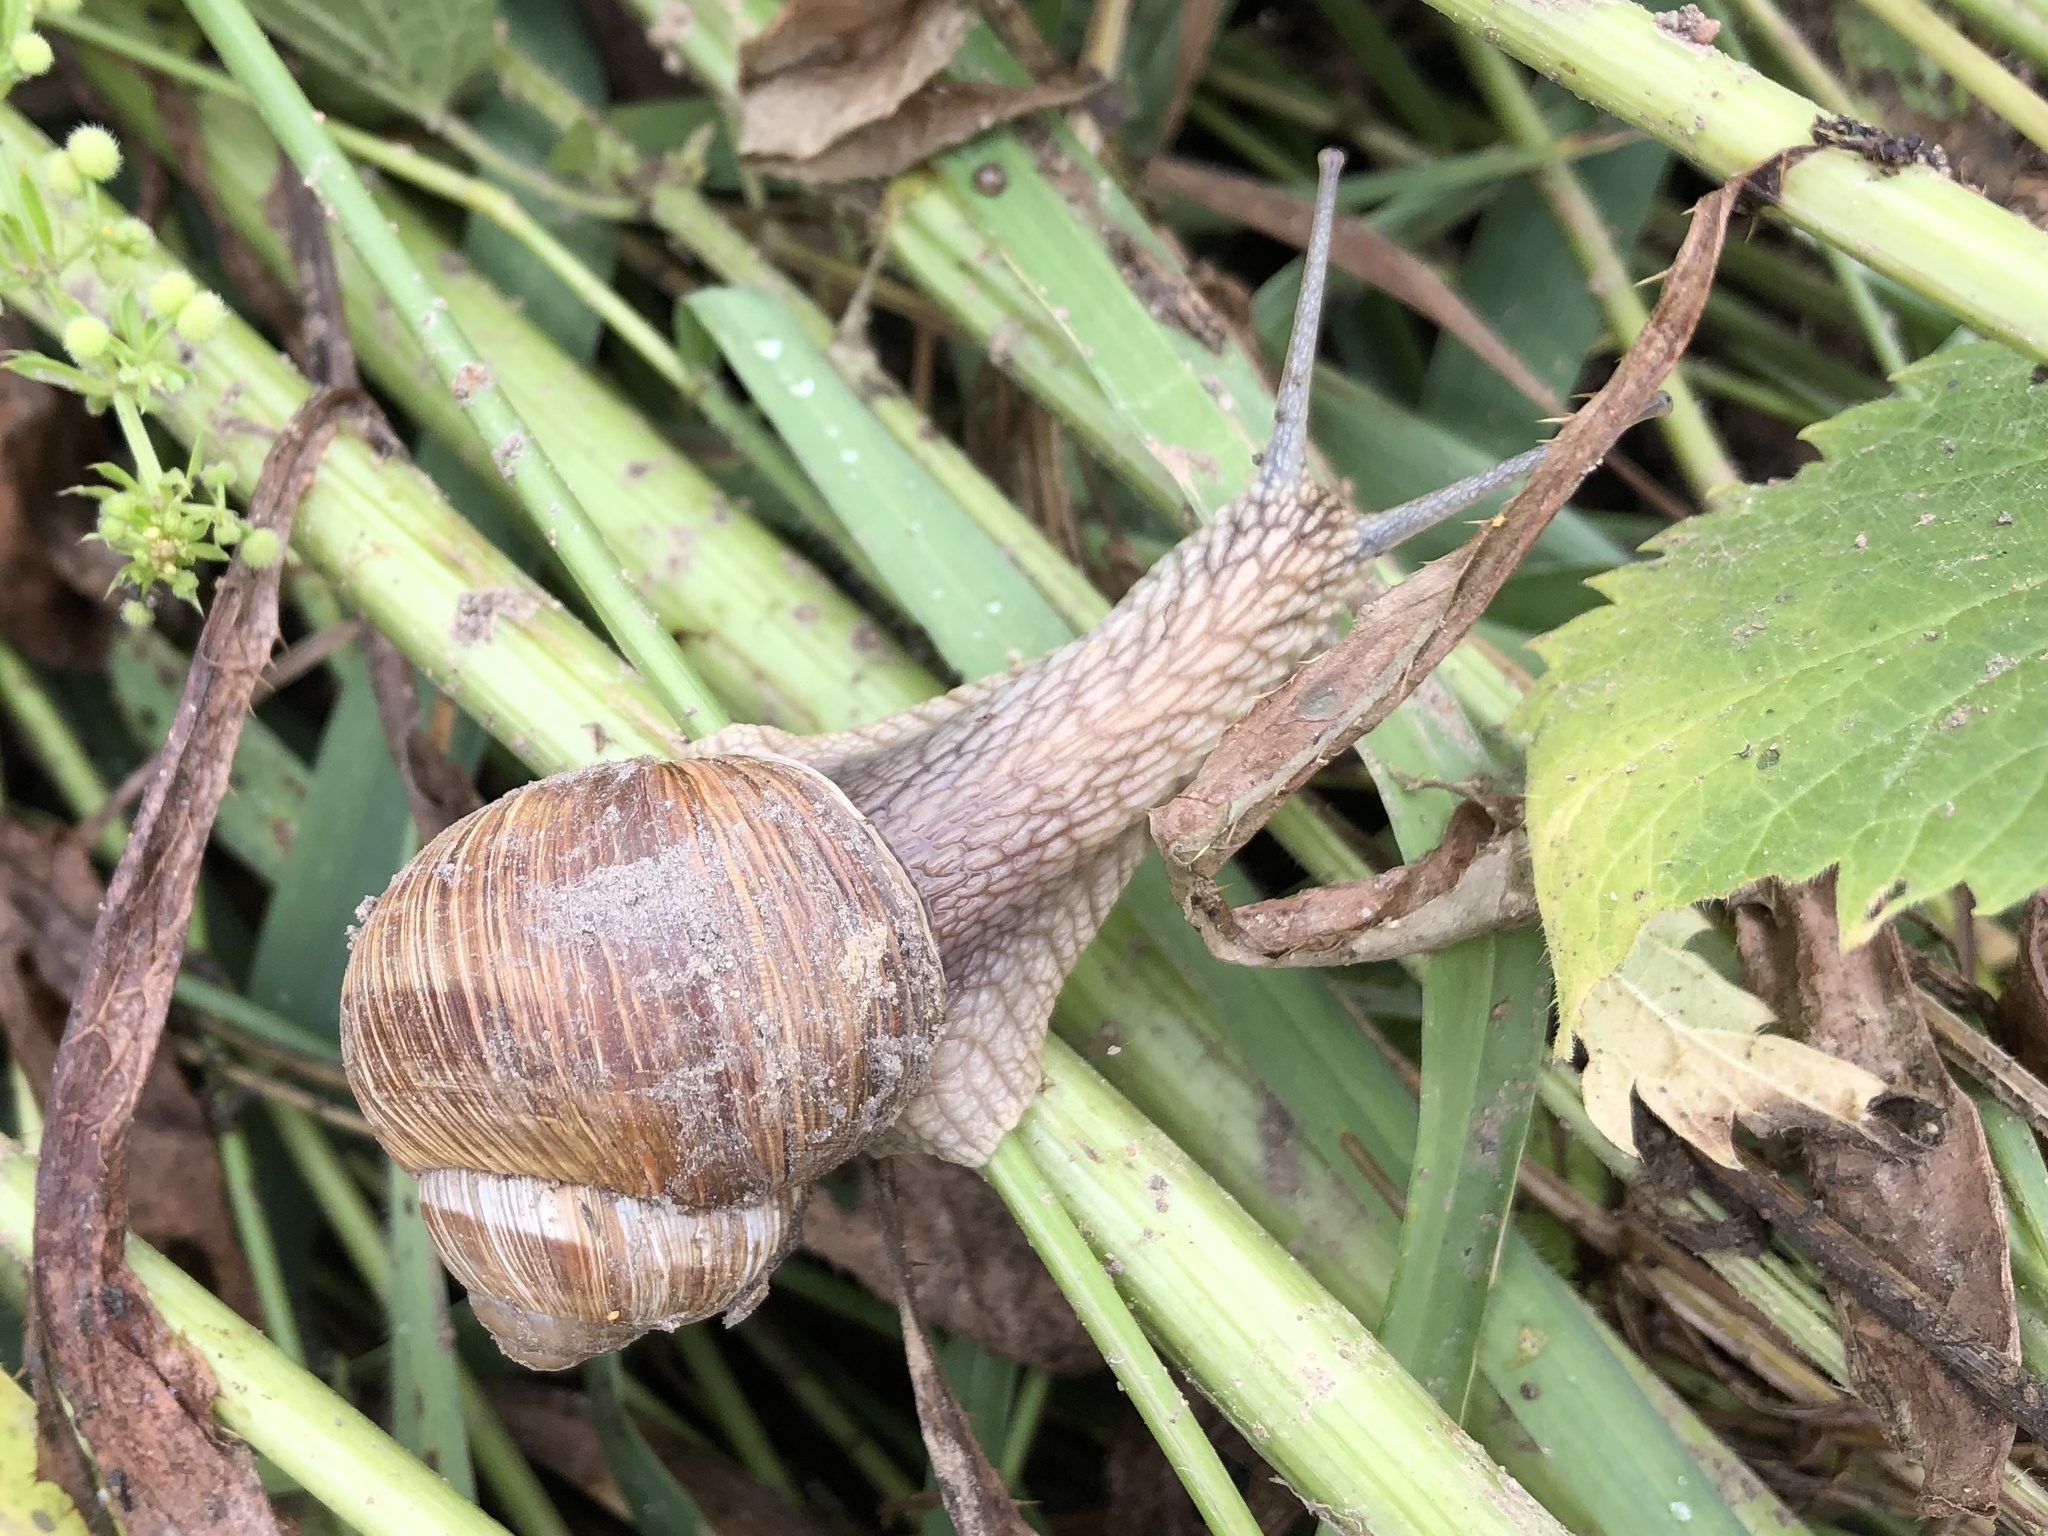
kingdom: Animalia
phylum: Mollusca
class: Gastropoda
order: Stylommatophora
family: Helicidae
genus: Helix
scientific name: Helix pomatia
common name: Roman snail
